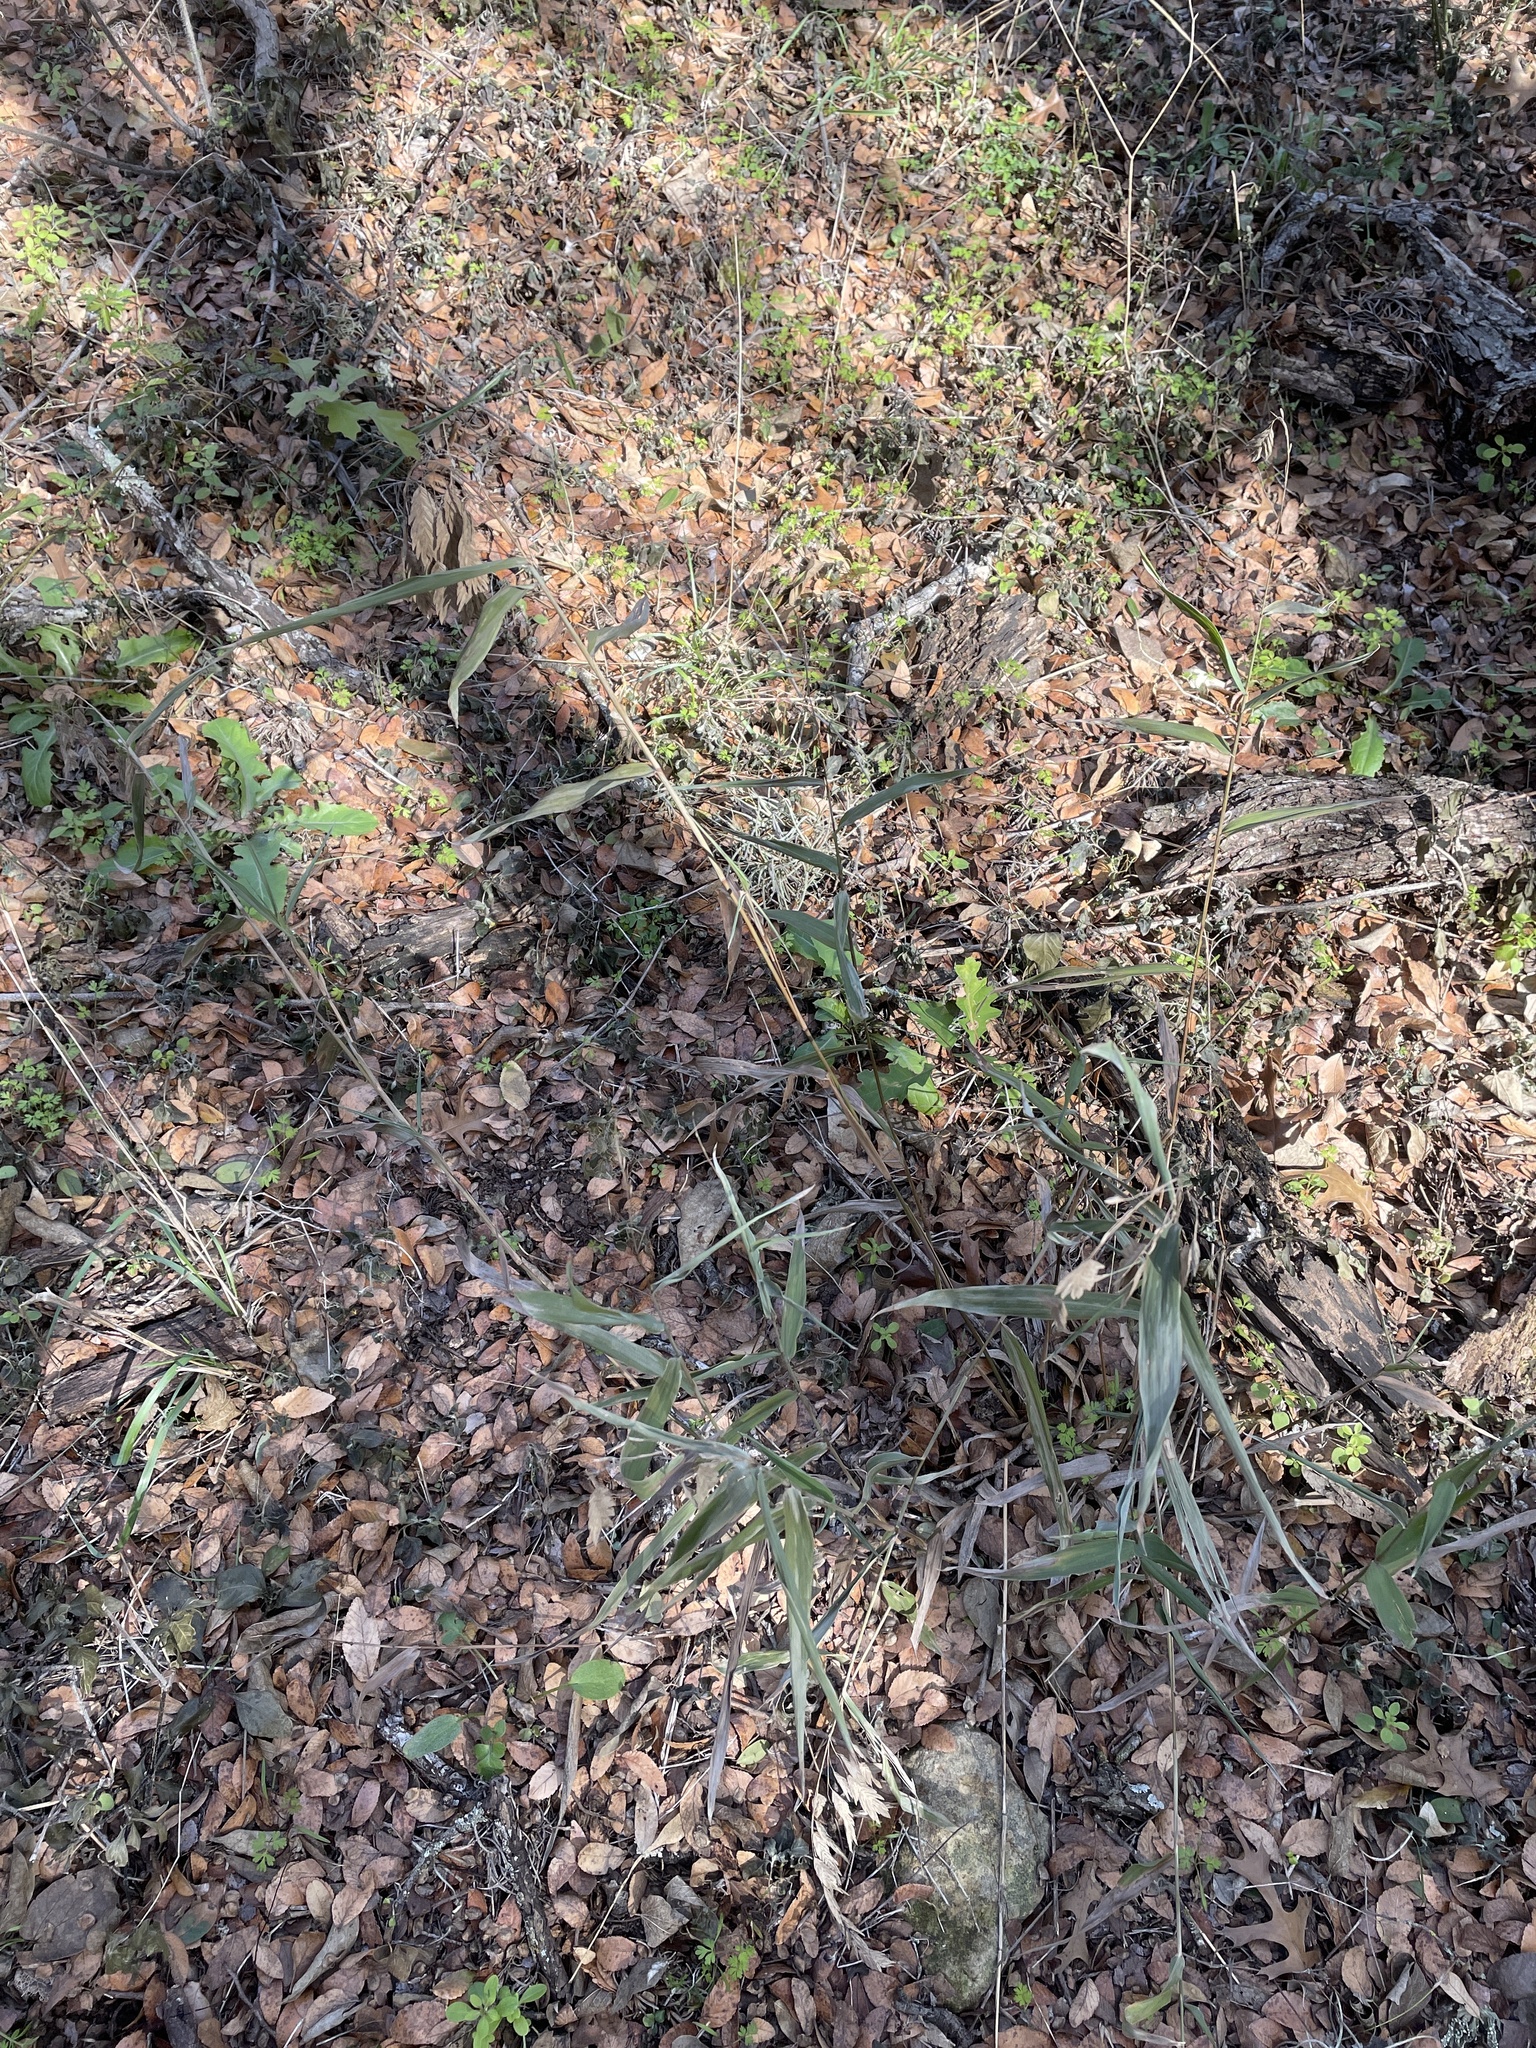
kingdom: Plantae
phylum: Tracheophyta
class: Liliopsida
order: Poales
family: Poaceae
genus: Chasmanthium
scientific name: Chasmanthium latifolium
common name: Broad-leaved chasmanthium
